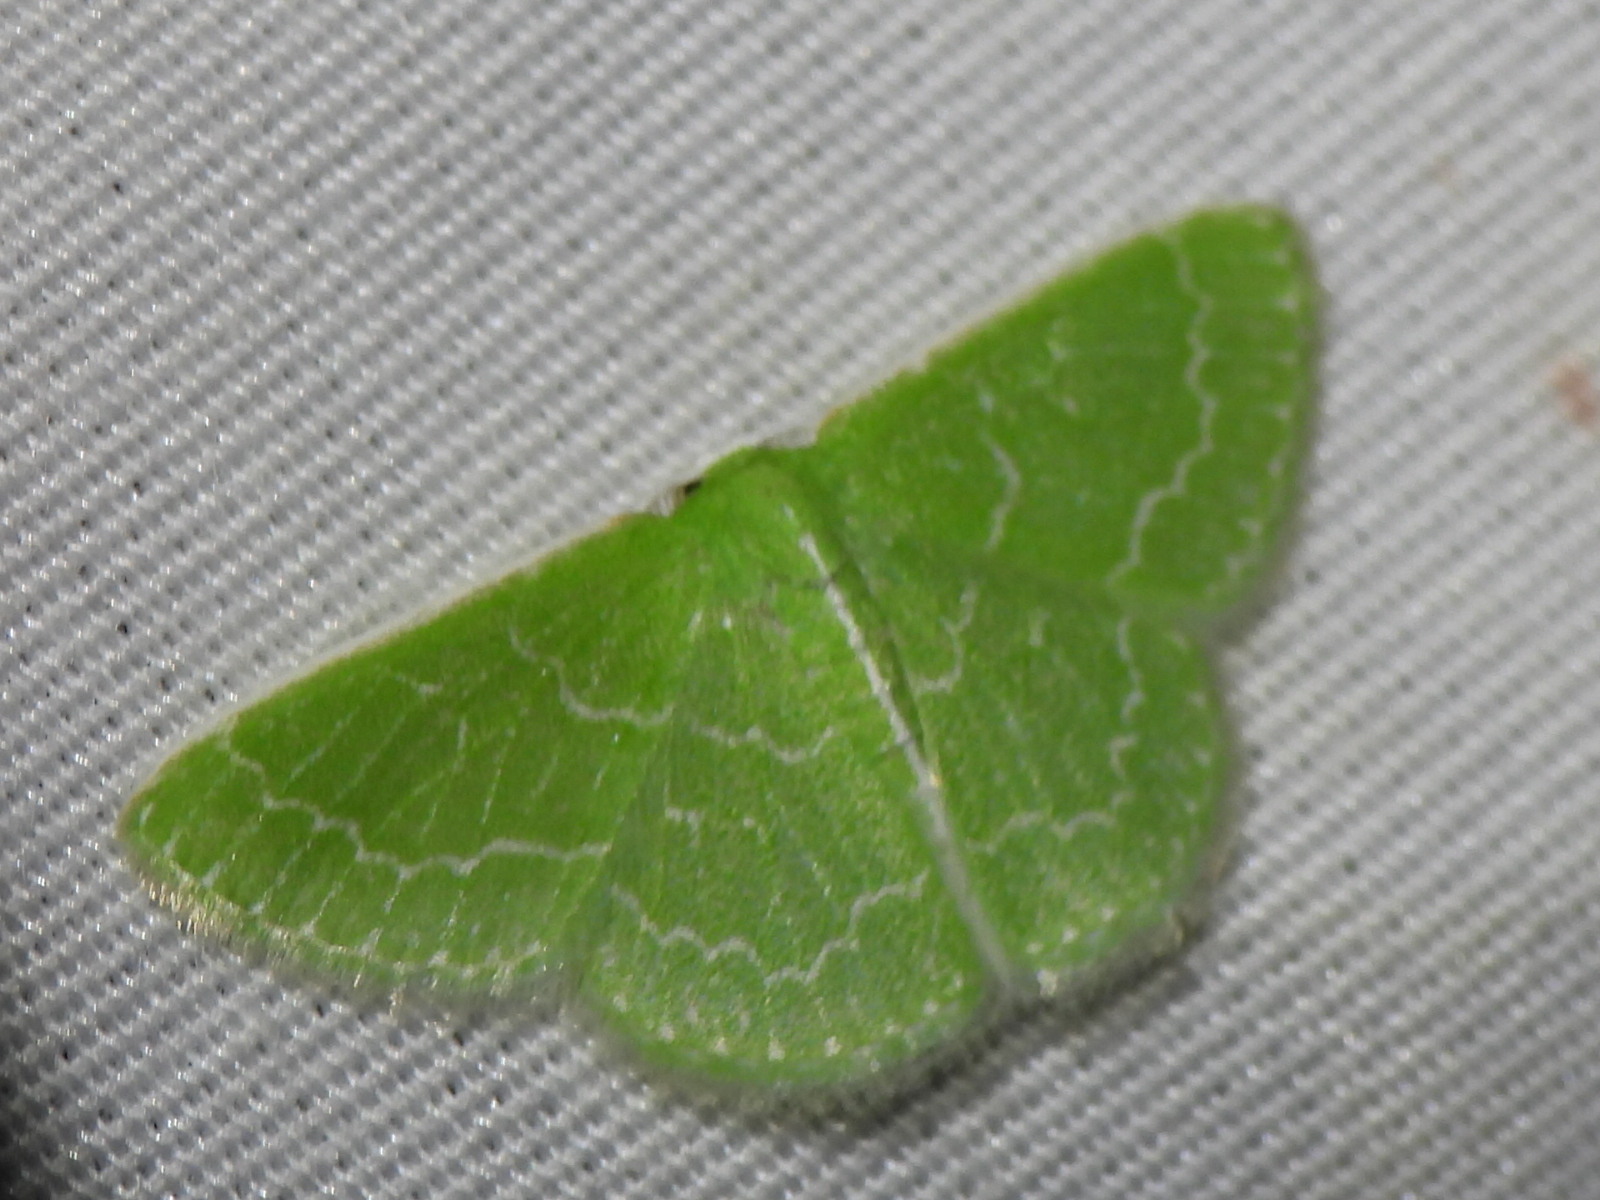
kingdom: Animalia
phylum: Arthropoda
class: Insecta
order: Lepidoptera
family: Geometridae
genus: Synchlora
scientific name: Synchlora frondaria
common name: Southern emerald
